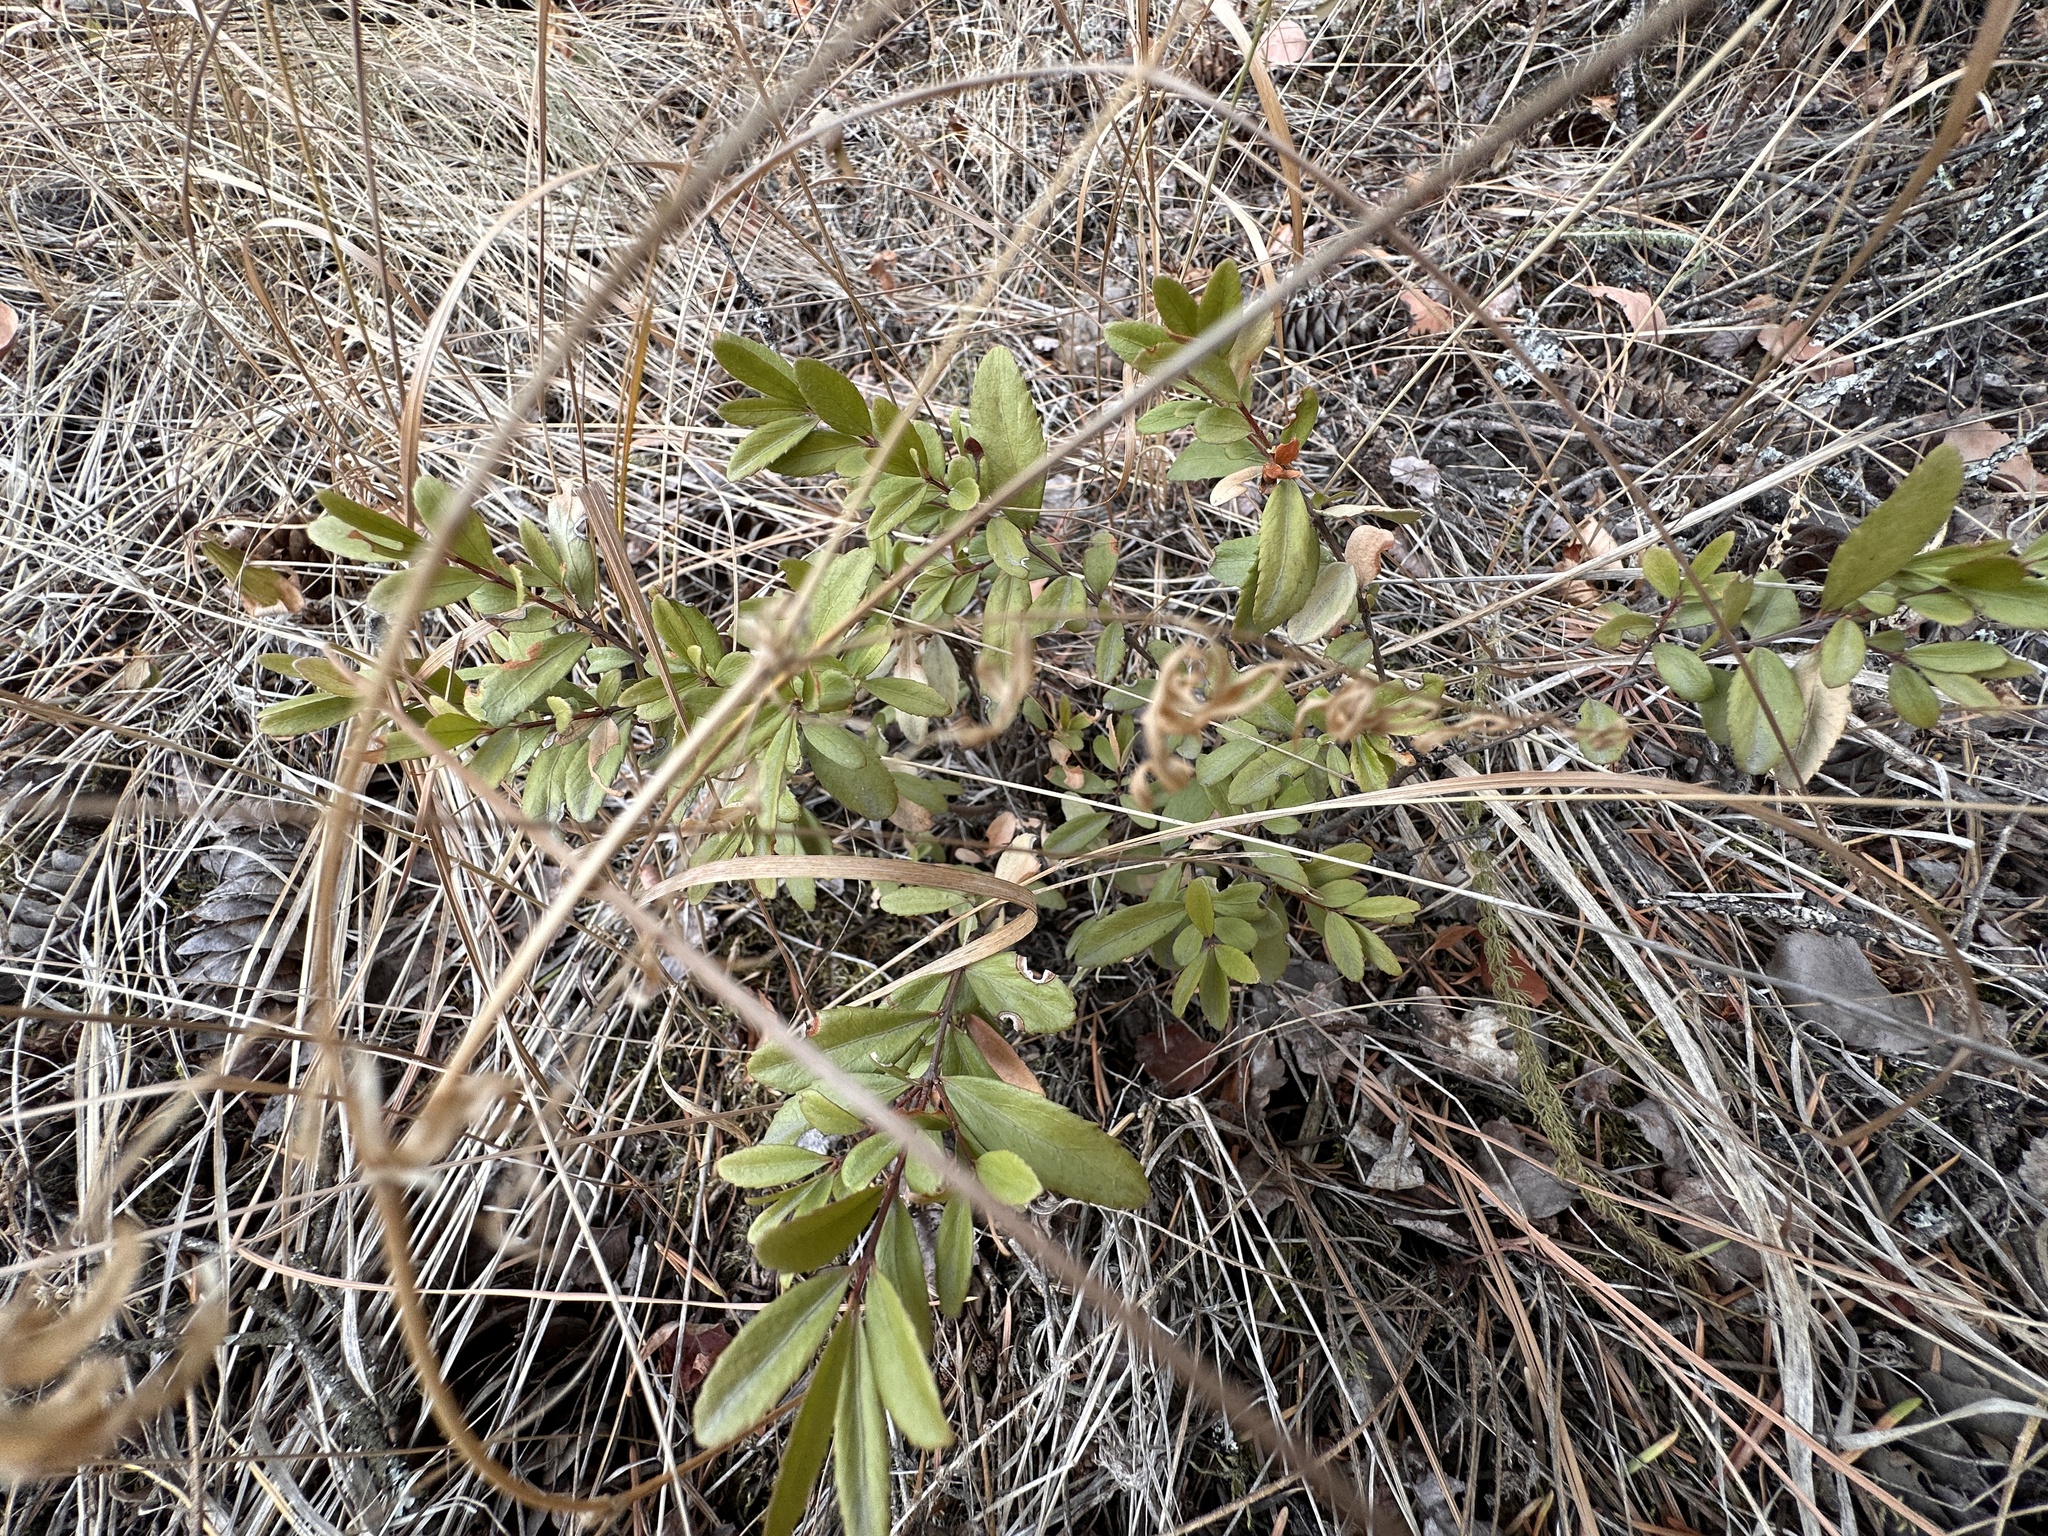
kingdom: Plantae
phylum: Tracheophyta
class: Magnoliopsida
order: Celastrales
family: Celastraceae
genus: Paxistima
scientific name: Paxistima myrsinites
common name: Mountain-lover
